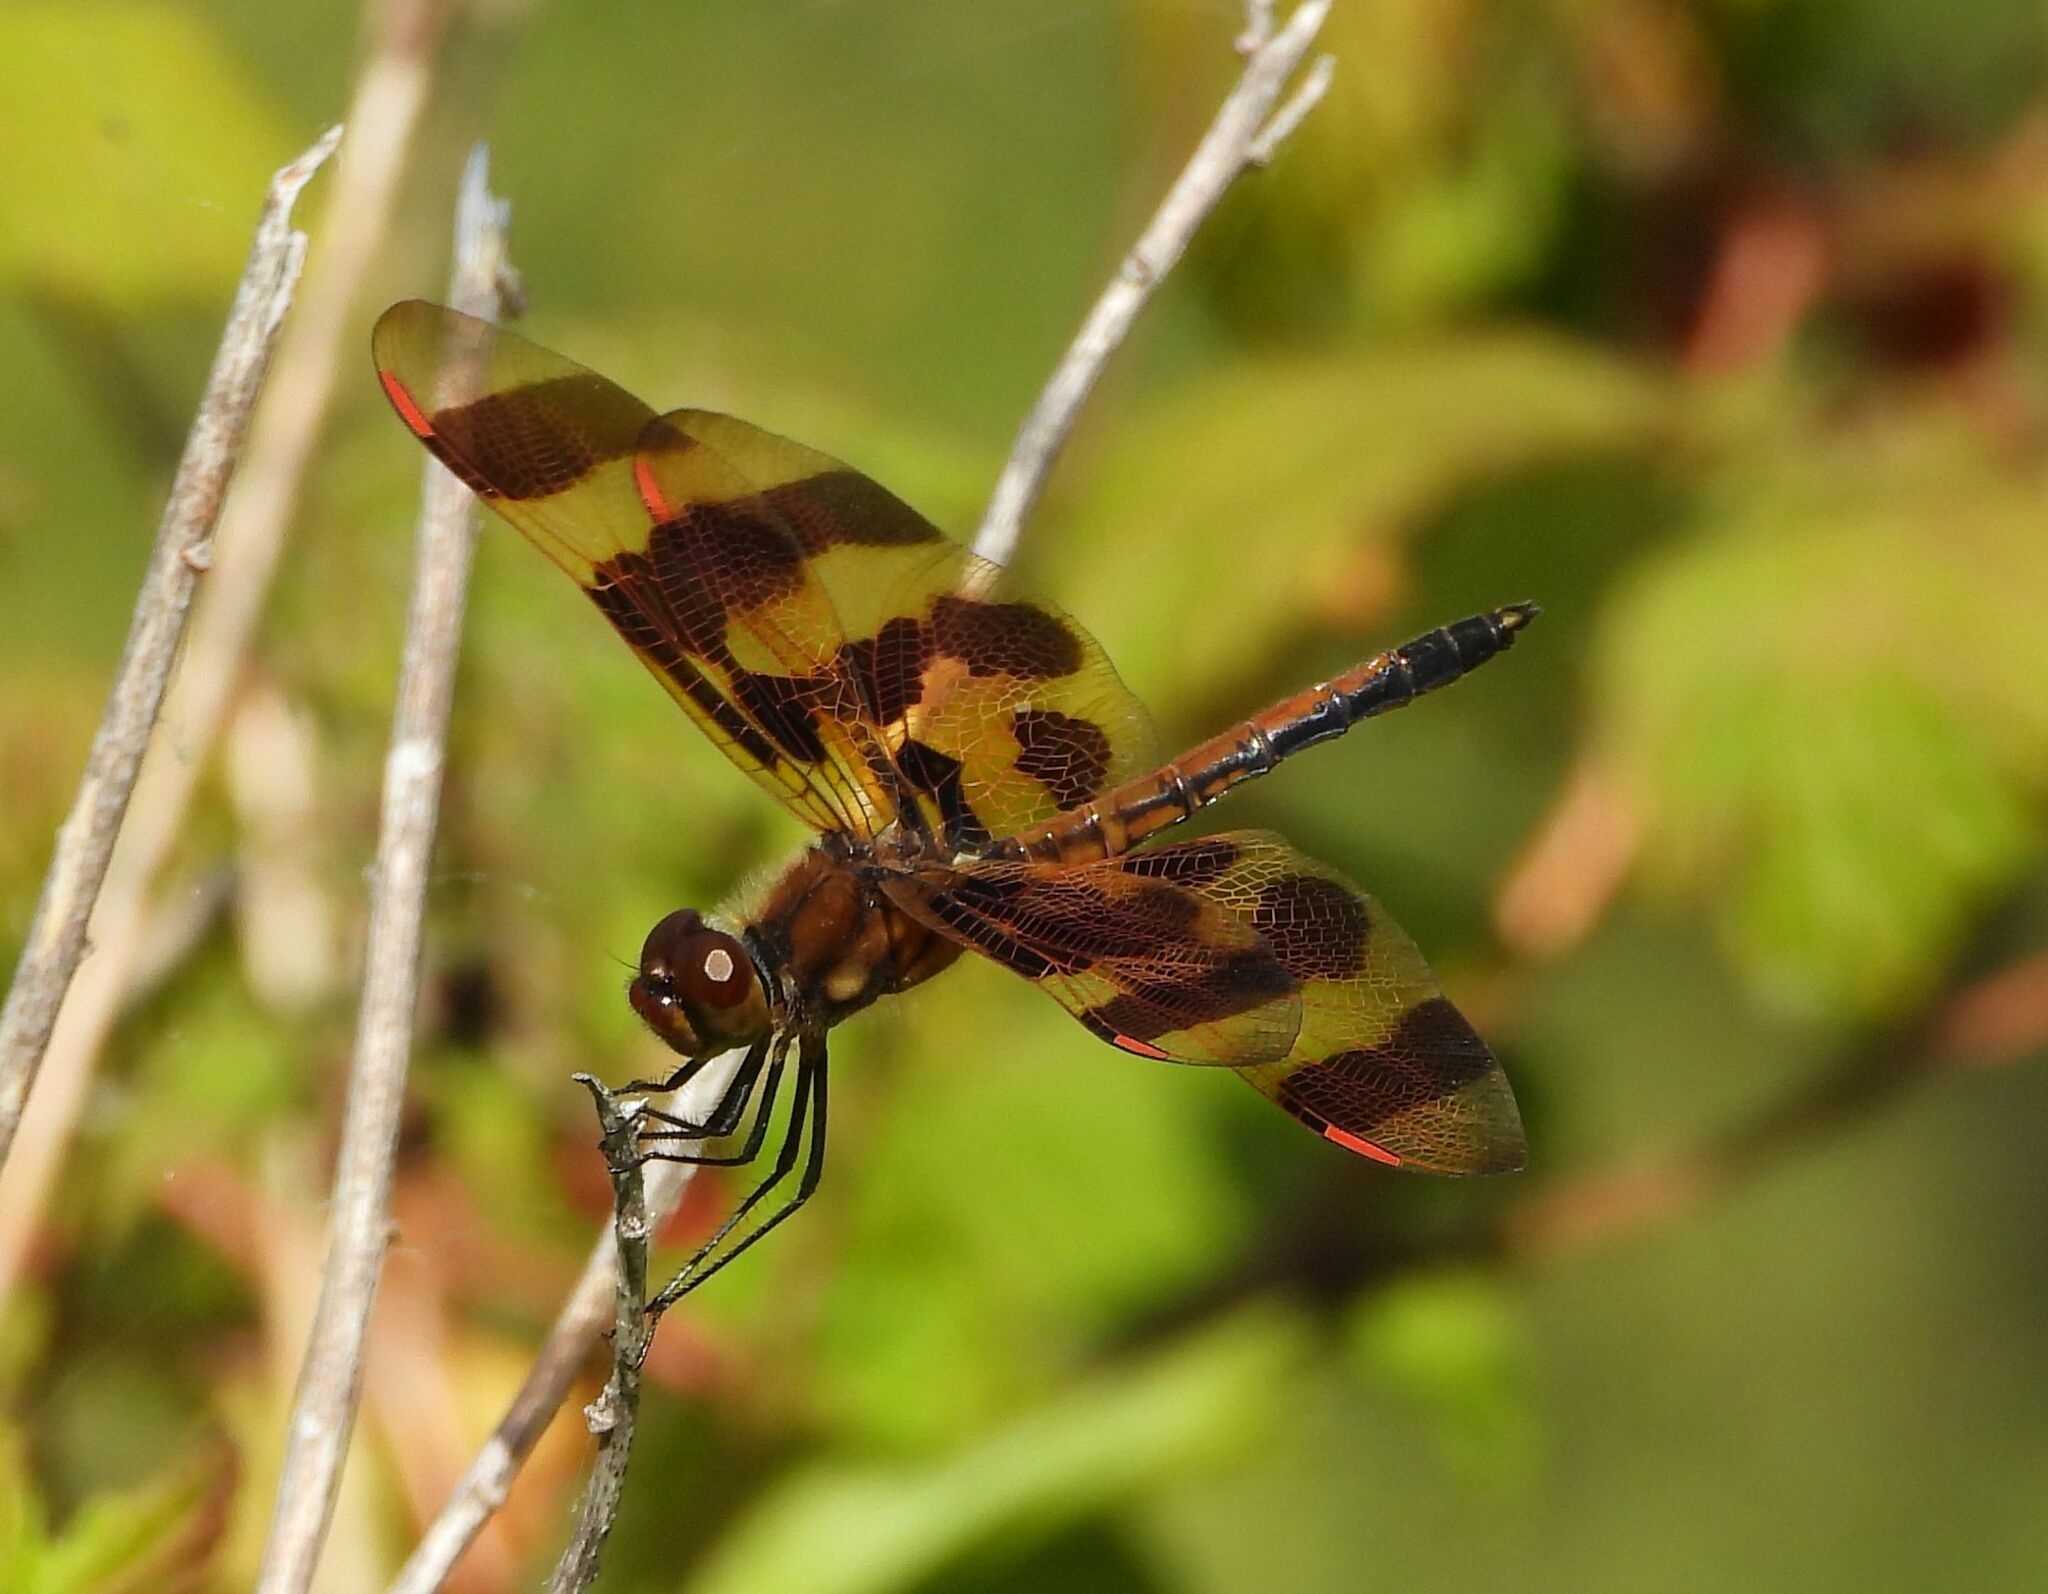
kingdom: Animalia
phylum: Arthropoda
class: Insecta
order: Odonata
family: Libellulidae
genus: Celithemis
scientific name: Celithemis eponina
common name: Halloween pennant
